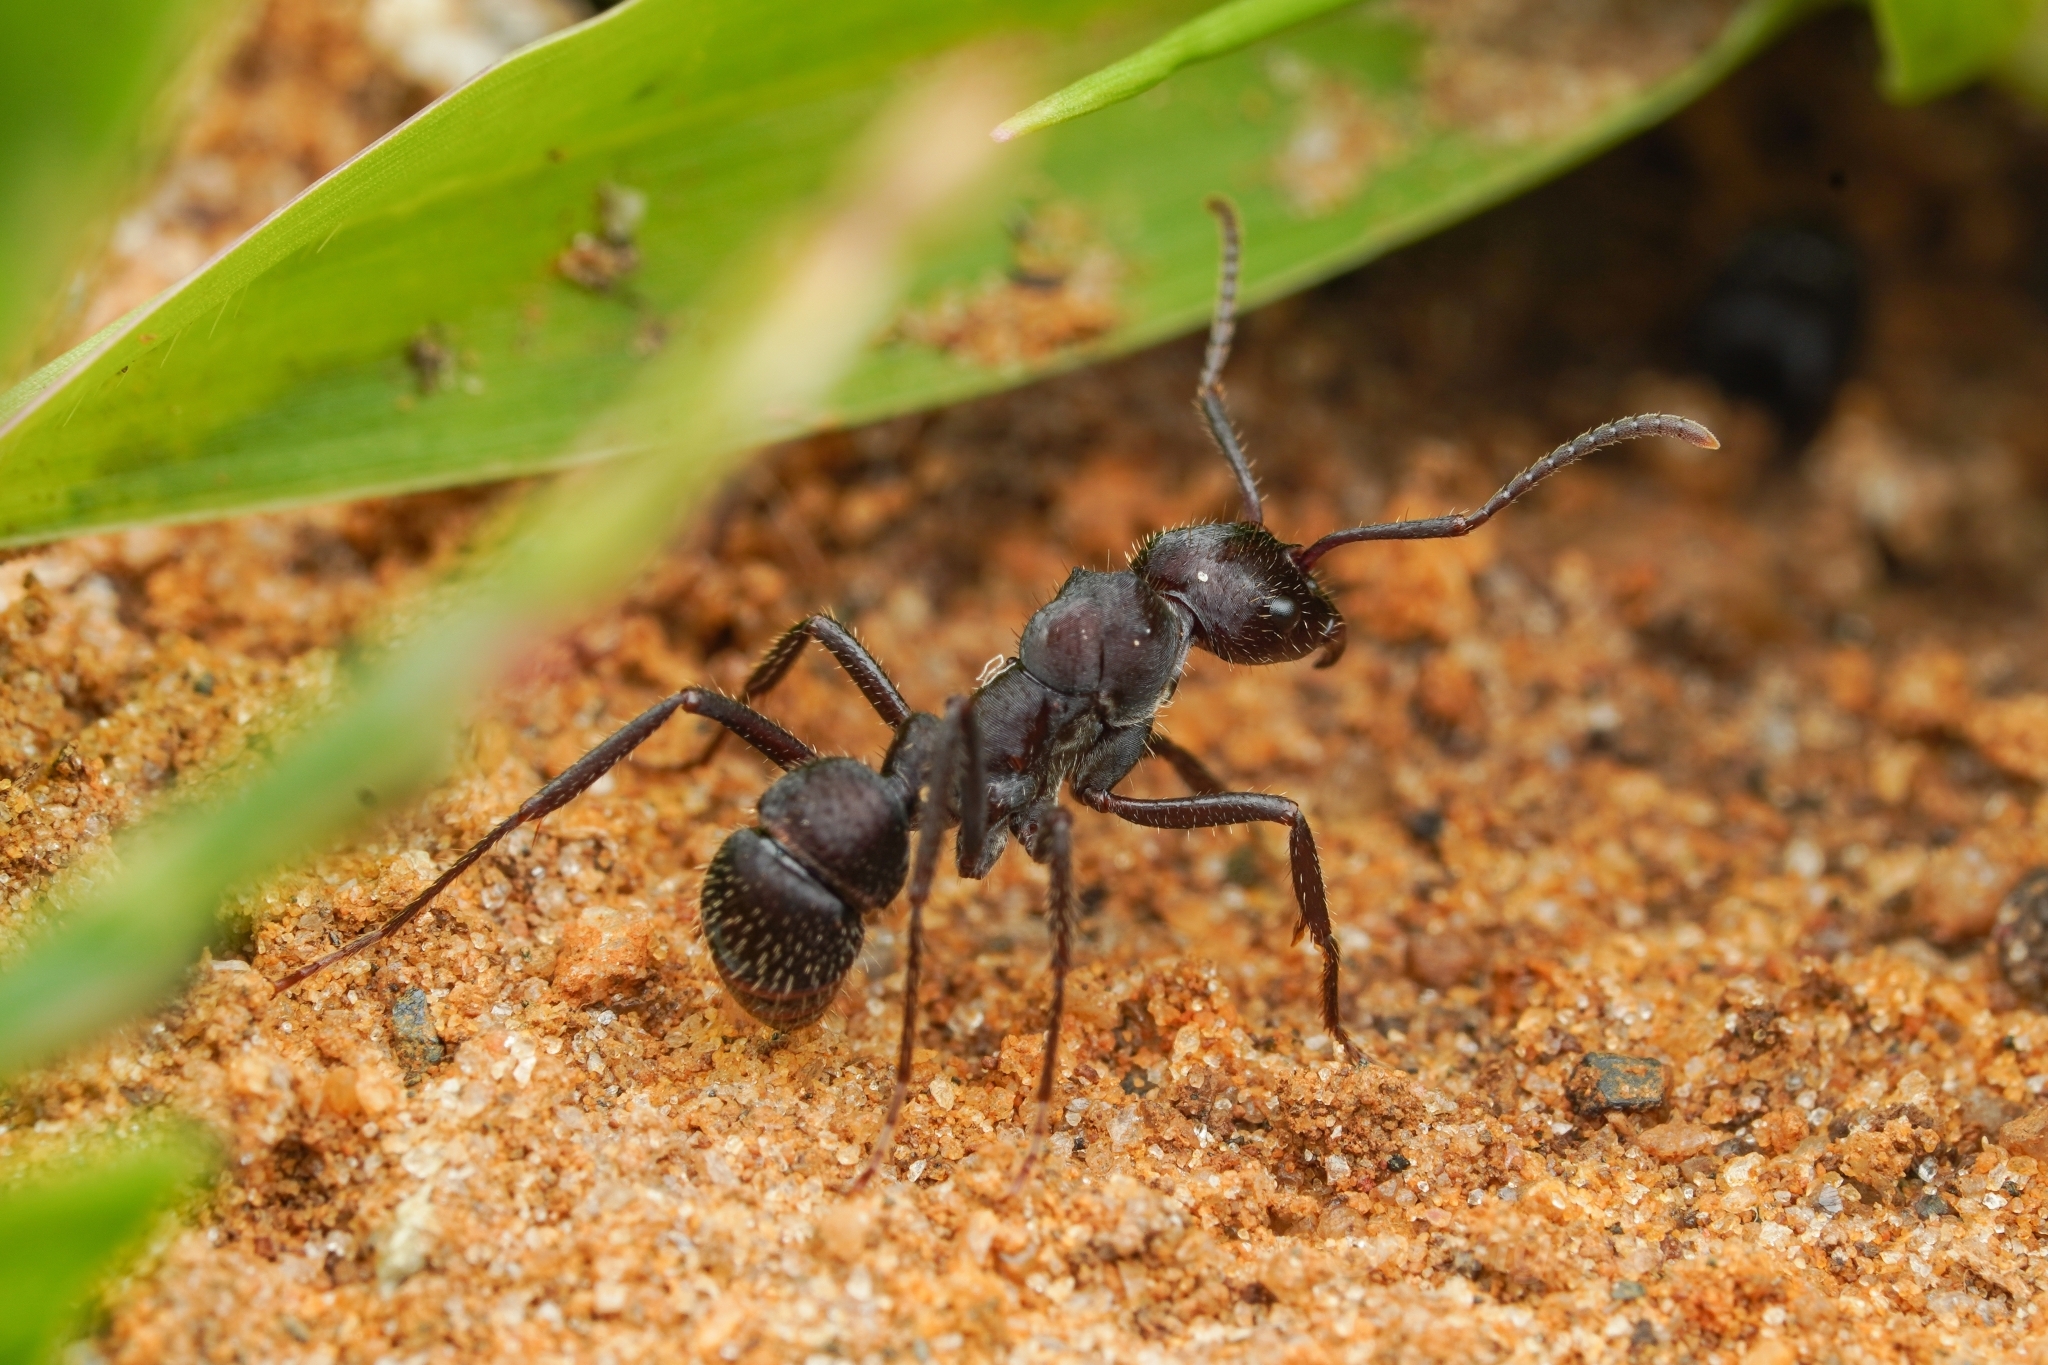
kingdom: Animalia
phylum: Arthropoda
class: Insecta
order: Hymenoptera
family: Formicidae
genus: Ectatomma
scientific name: Ectatomma brunneum
